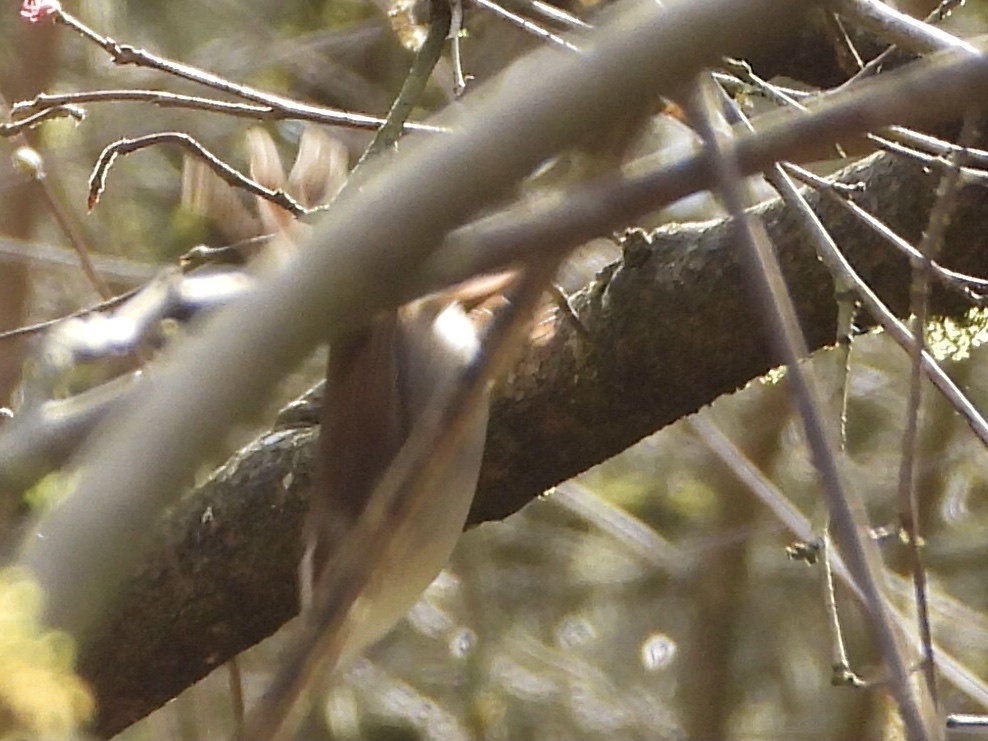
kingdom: Animalia
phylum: Chordata
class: Aves
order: Passeriformes
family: Troglodytidae
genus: Thryomanes
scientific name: Thryomanes bewickii
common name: Bewick's wren
